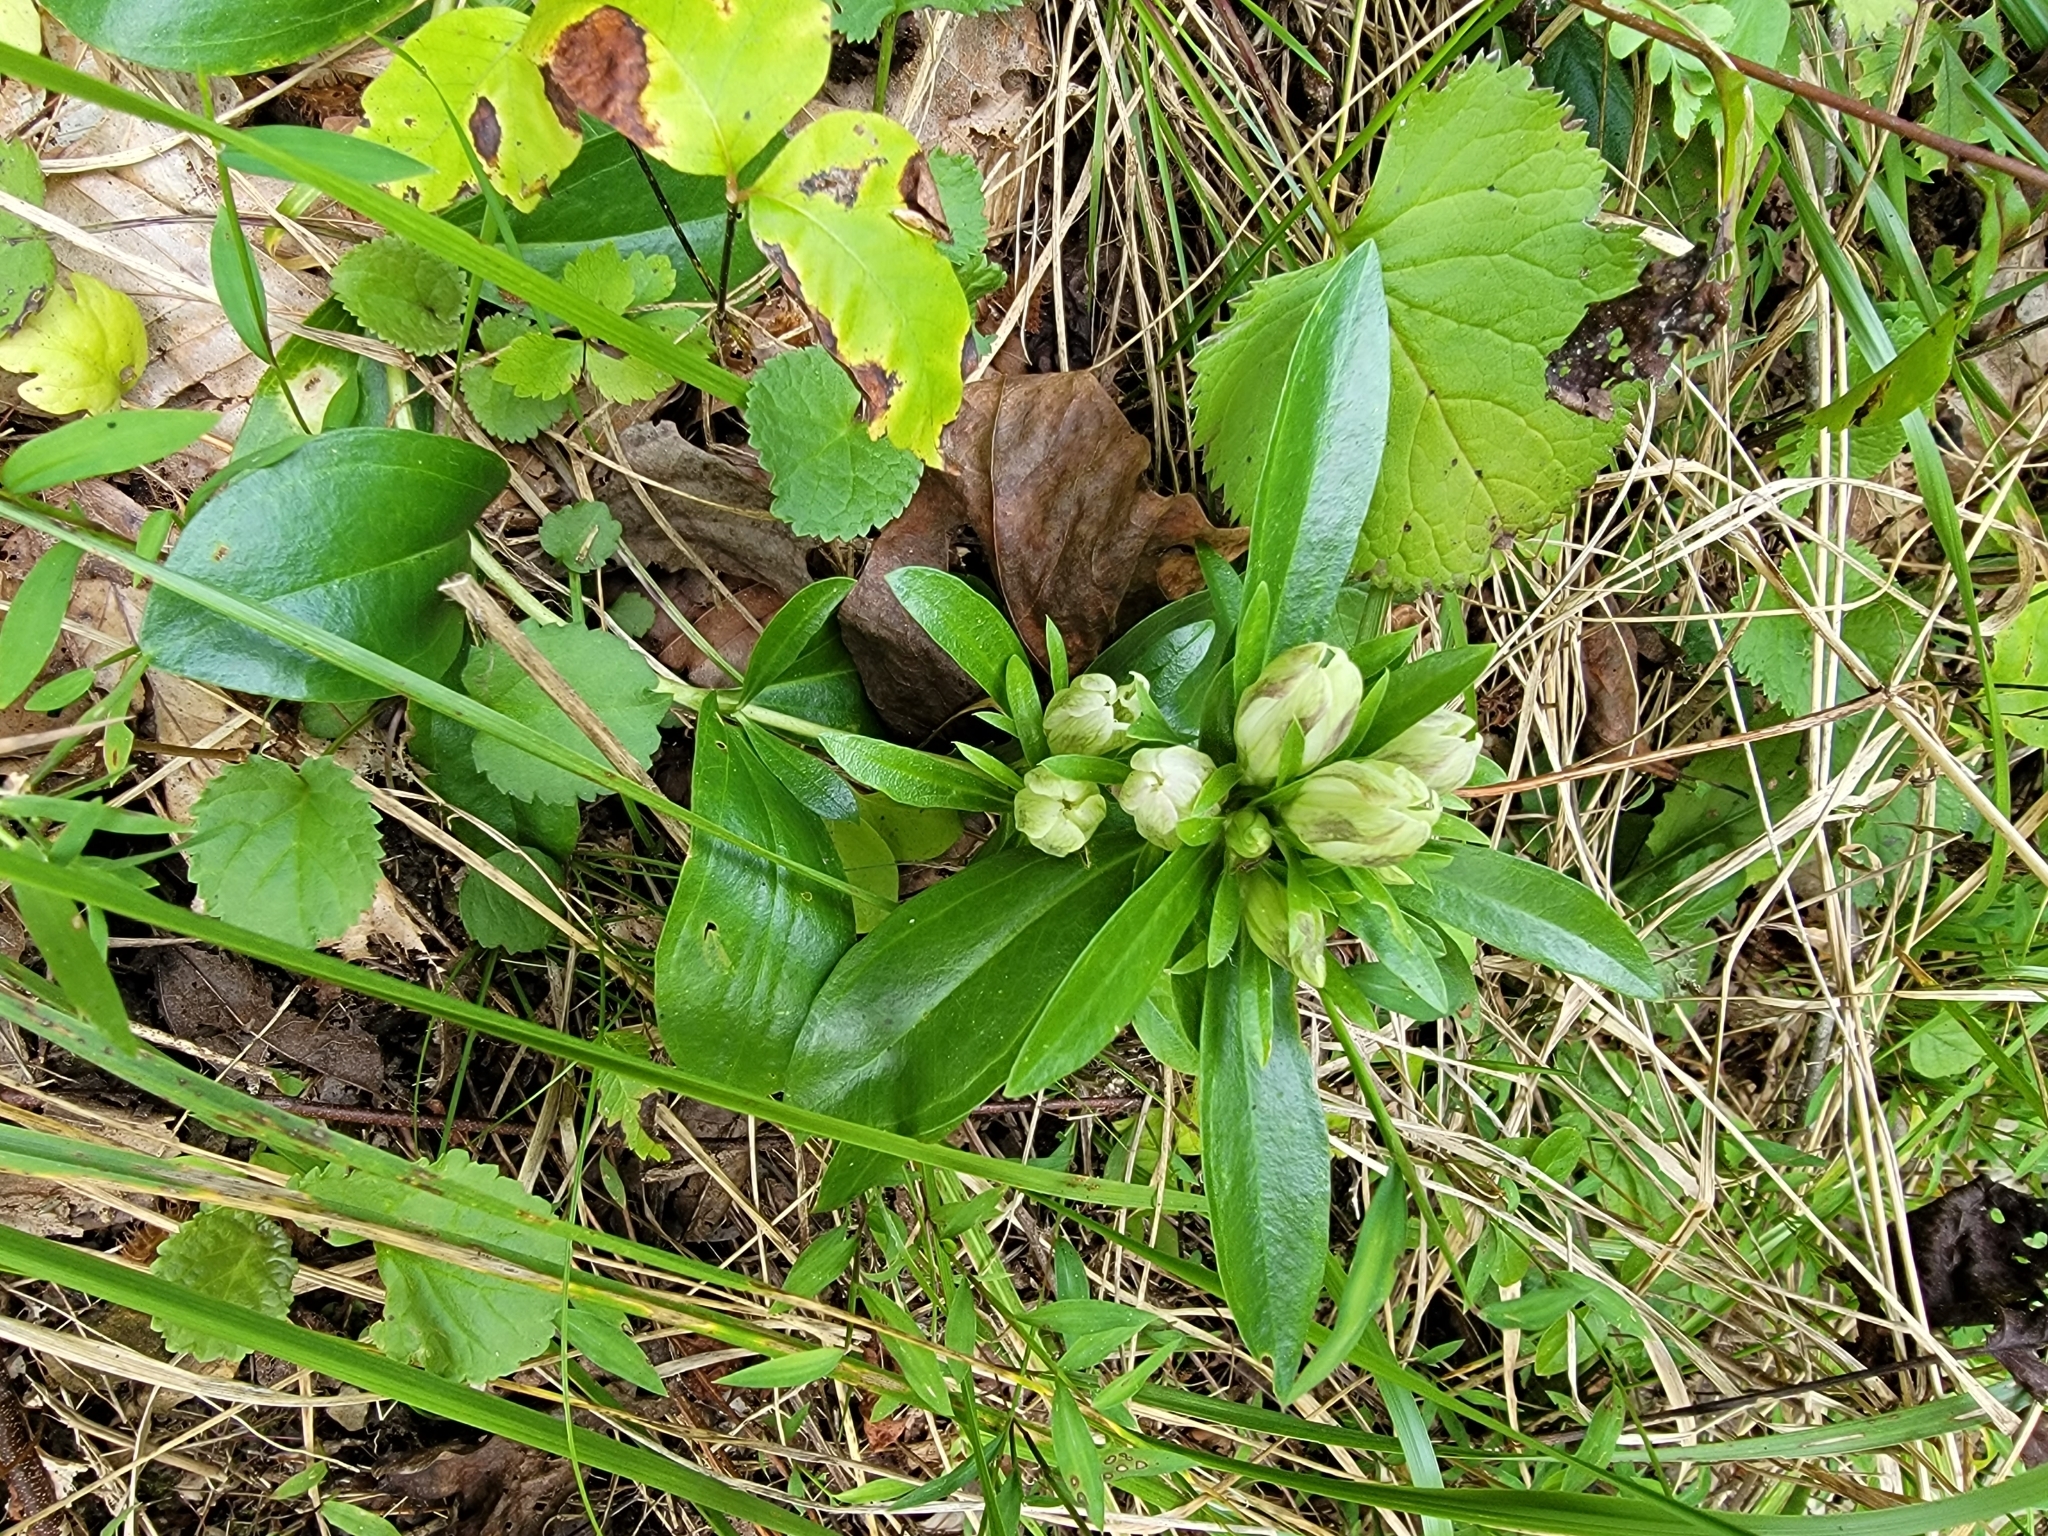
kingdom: Plantae
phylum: Tracheophyta
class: Magnoliopsida
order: Gentianales
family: Gentianaceae
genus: Gentiana
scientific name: Gentiana villosa
